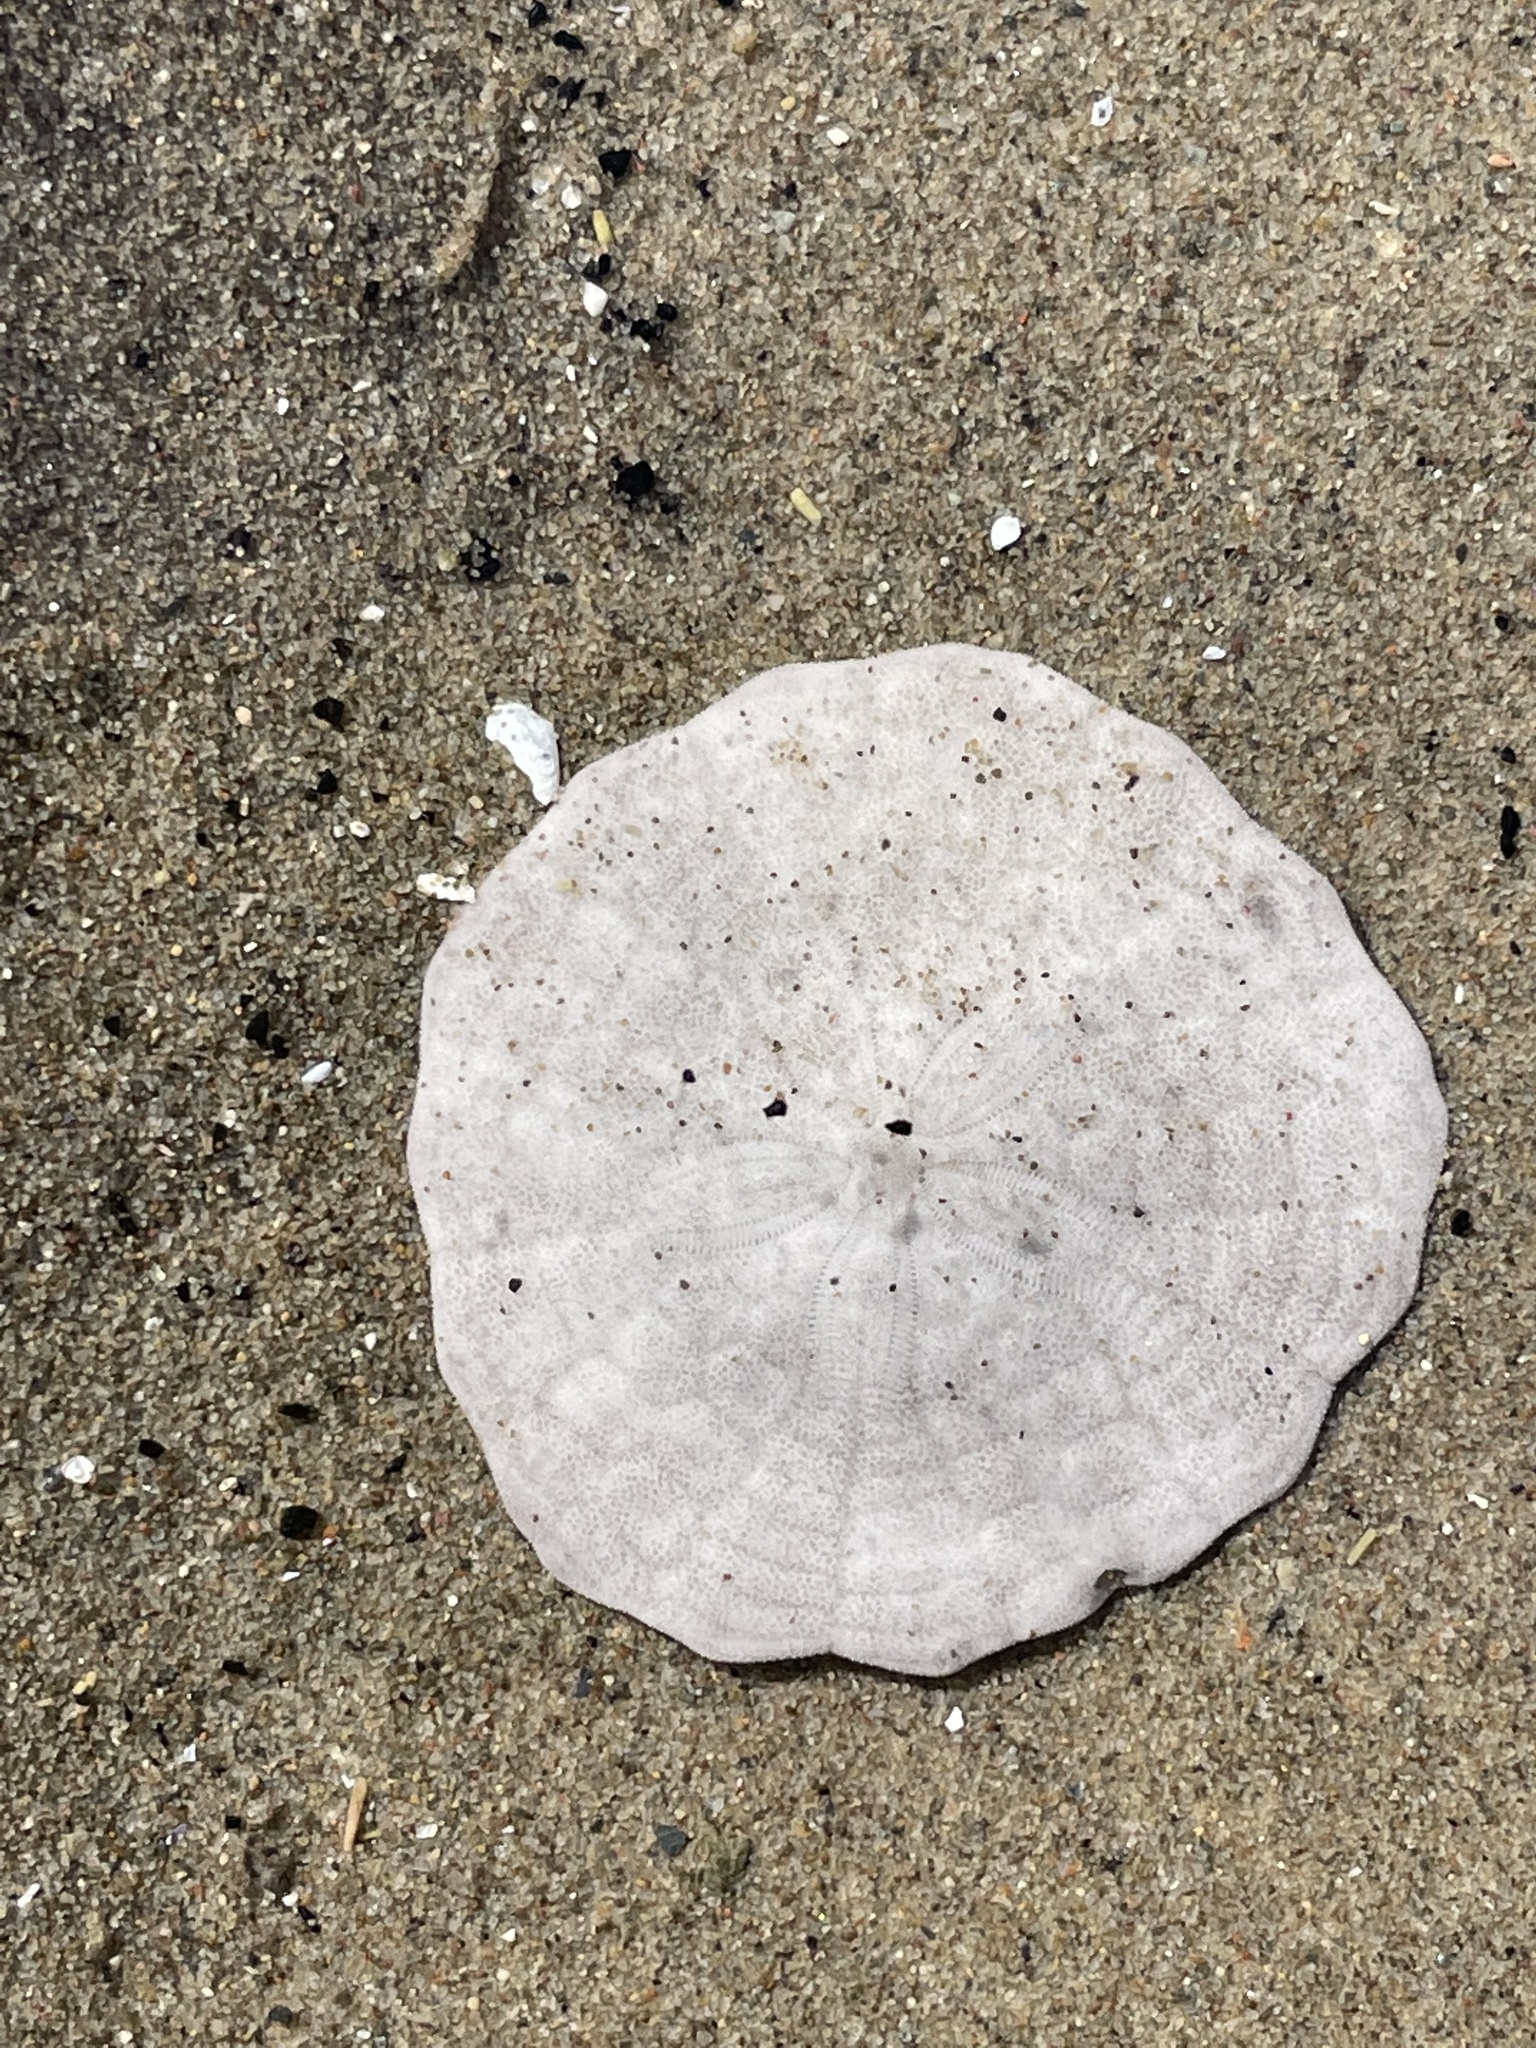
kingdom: Animalia
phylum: Echinodermata
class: Echinoidea
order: Echinolampadacea
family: Echinarachniidae
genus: Echinarachnius
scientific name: Echinarachnius parma
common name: Common sand dollar
